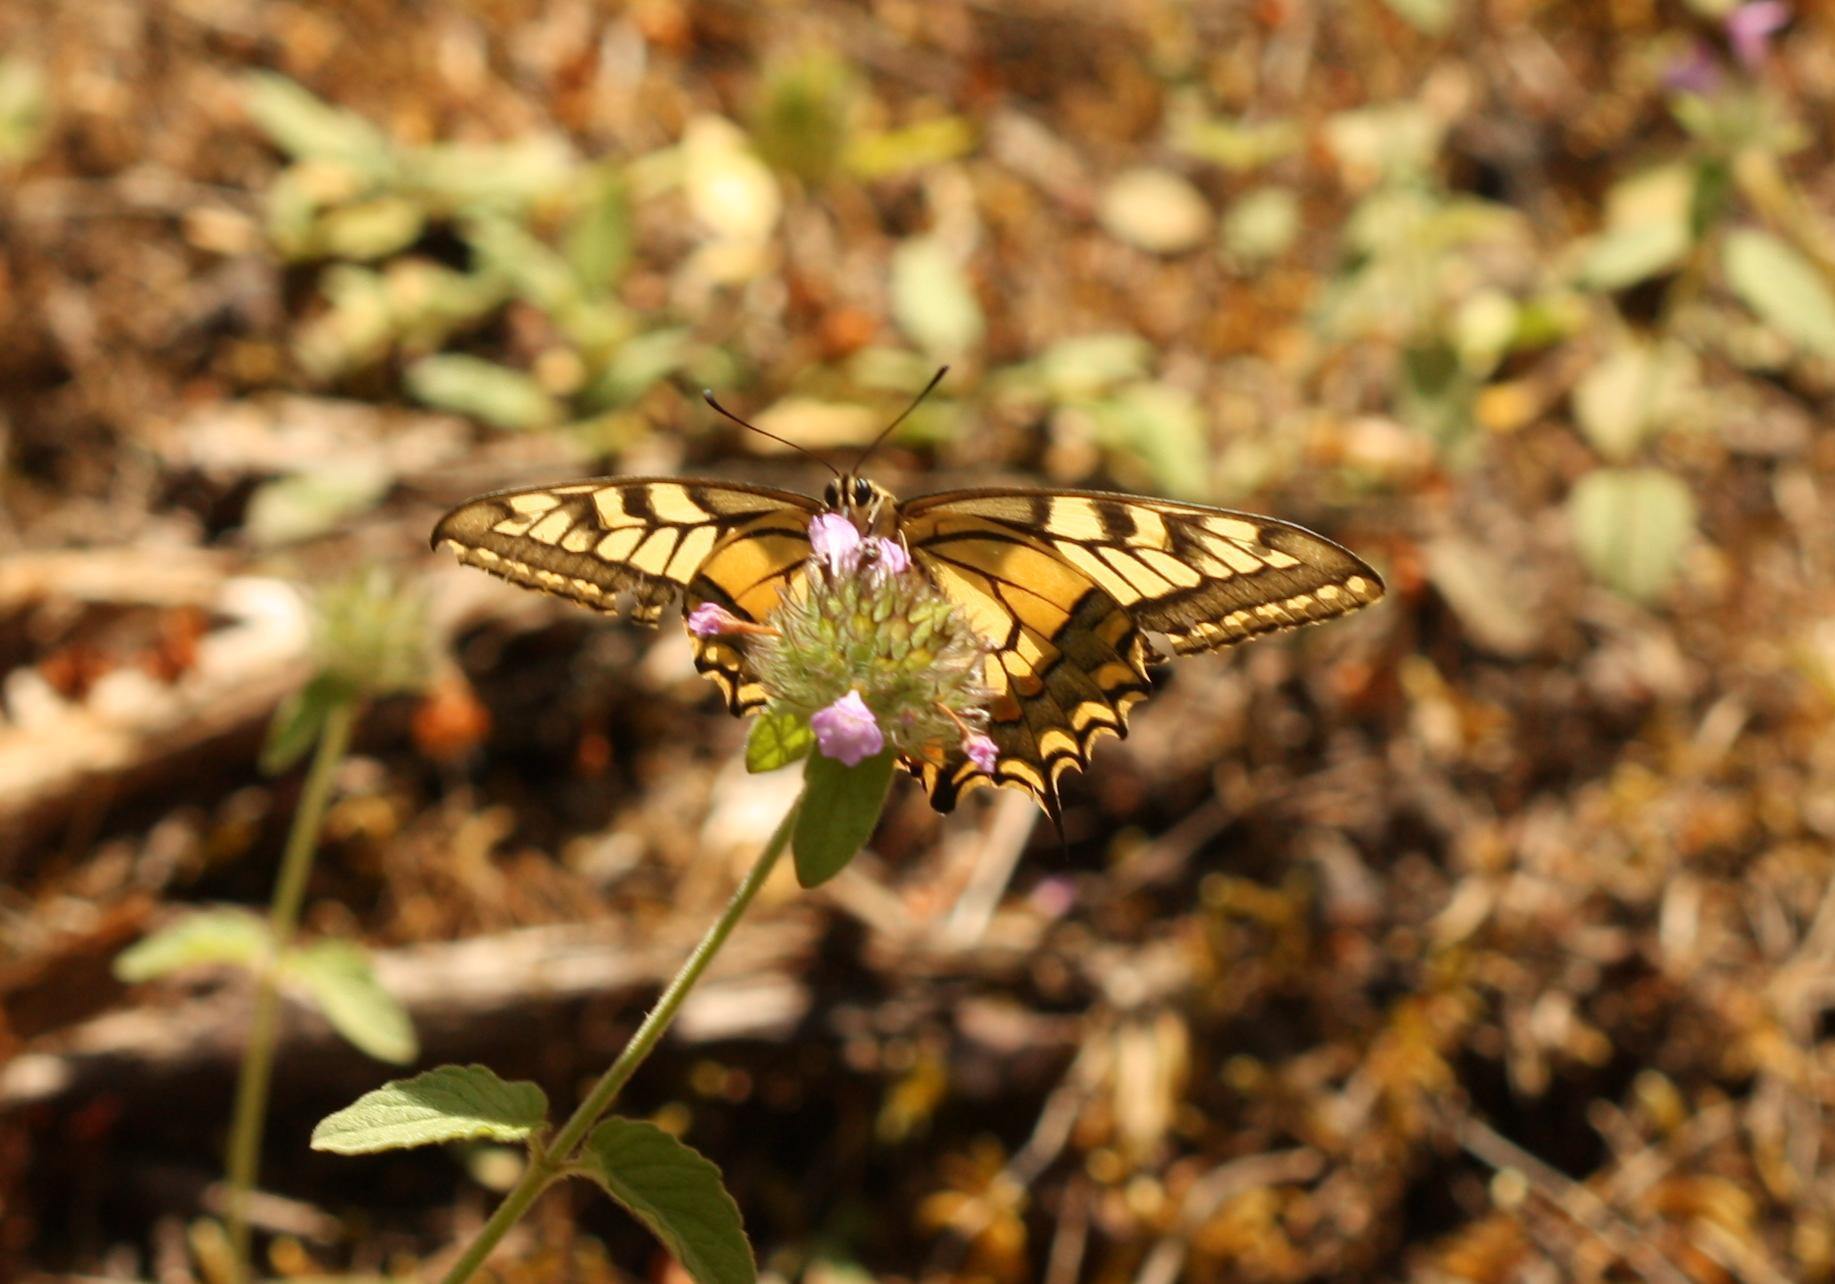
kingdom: Animalia
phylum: Arthropoda
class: Insecta
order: Lepidoptera
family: Papilionidae
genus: Papilio
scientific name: Papilio machaon
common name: Swallowtail
